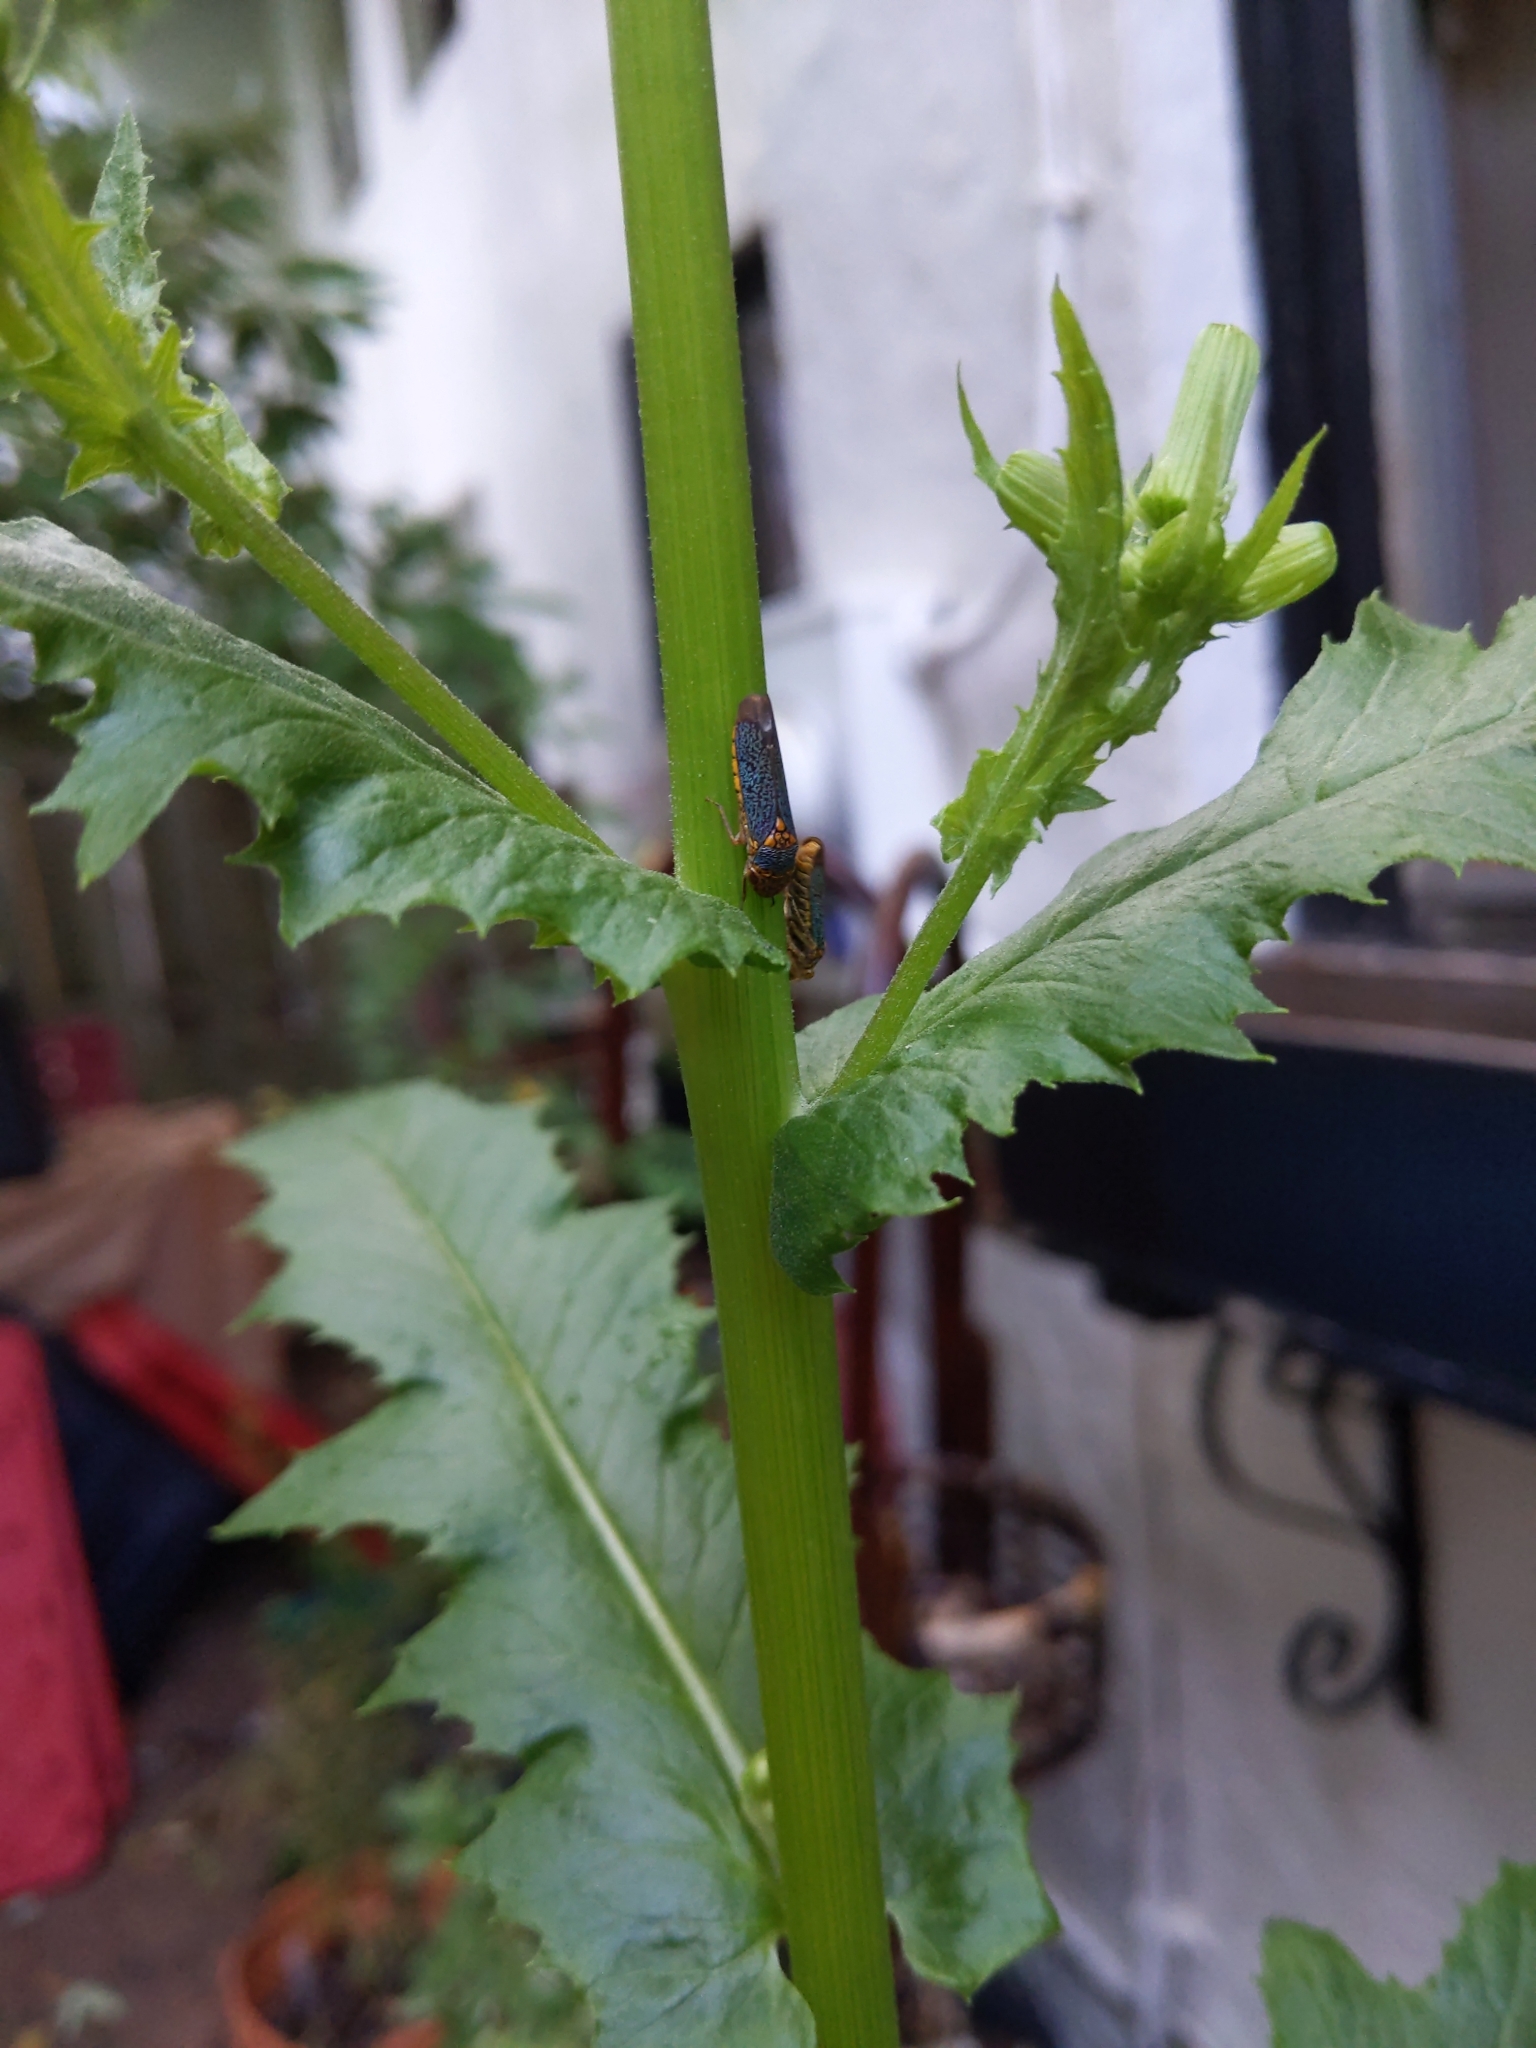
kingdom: Animalia
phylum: Arthropoda
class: Insecta
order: Hemiptera
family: Cicadellidae
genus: Oncometopia
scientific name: Oncometopia orbona
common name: Broad-headed sharpshooter
